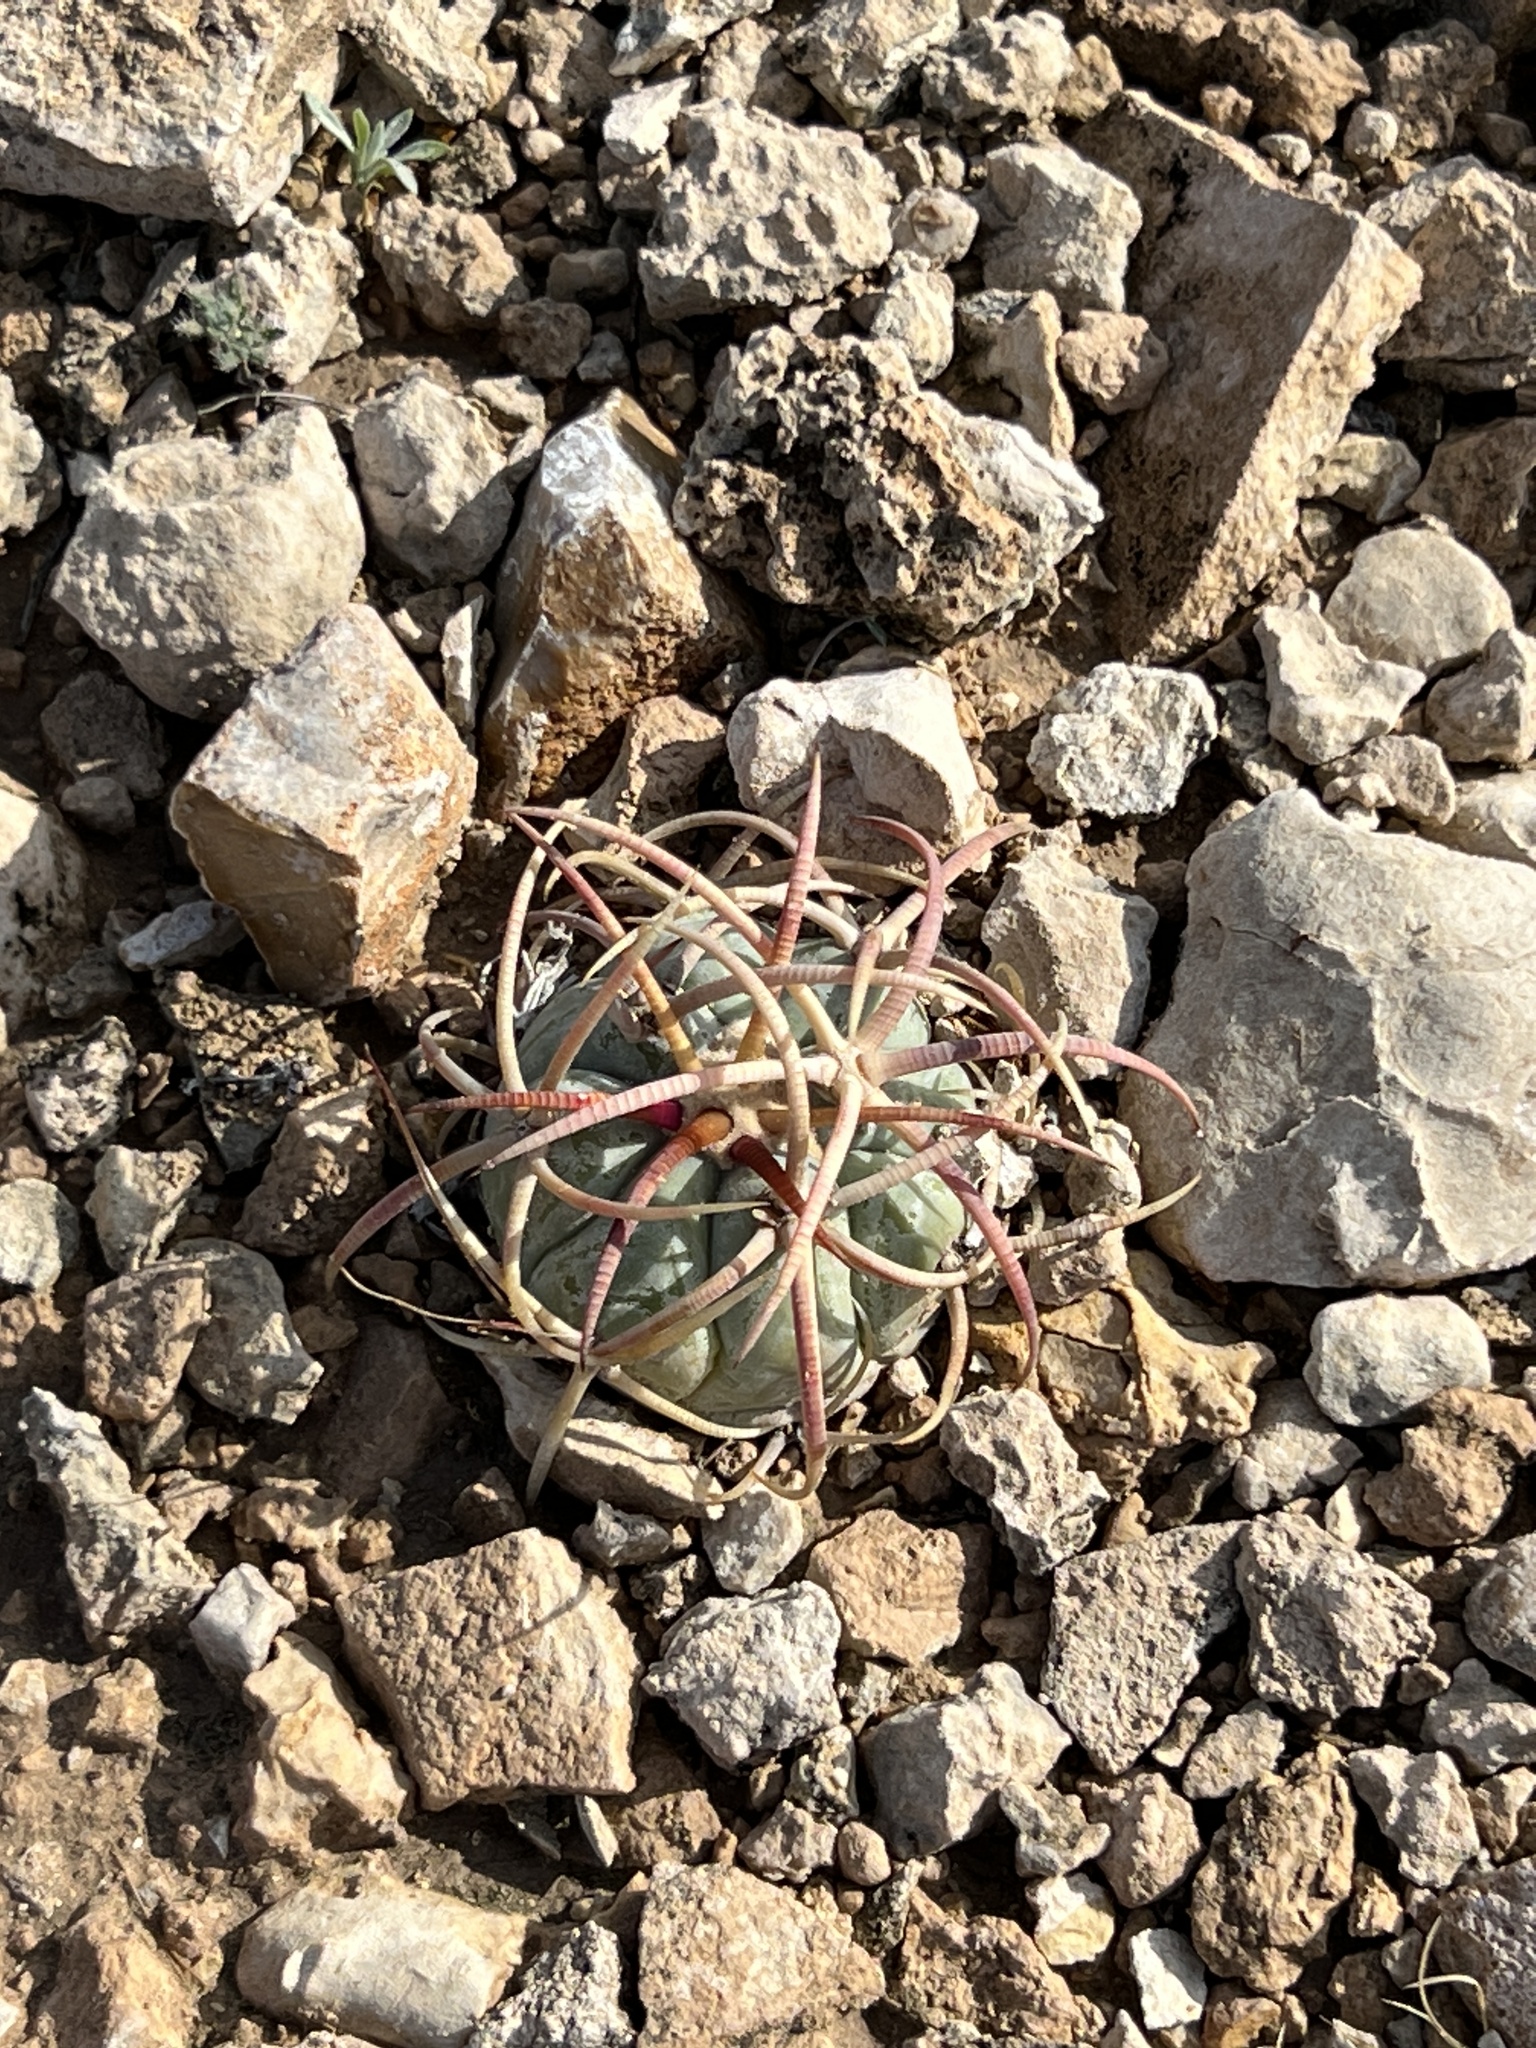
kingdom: Plantae
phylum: Tracheophyta
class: Magnoliopsida
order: Caryophyllales
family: Cactaceae
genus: Echinocactus
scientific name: Echinocactus horizonthalonius
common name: Devilshead
